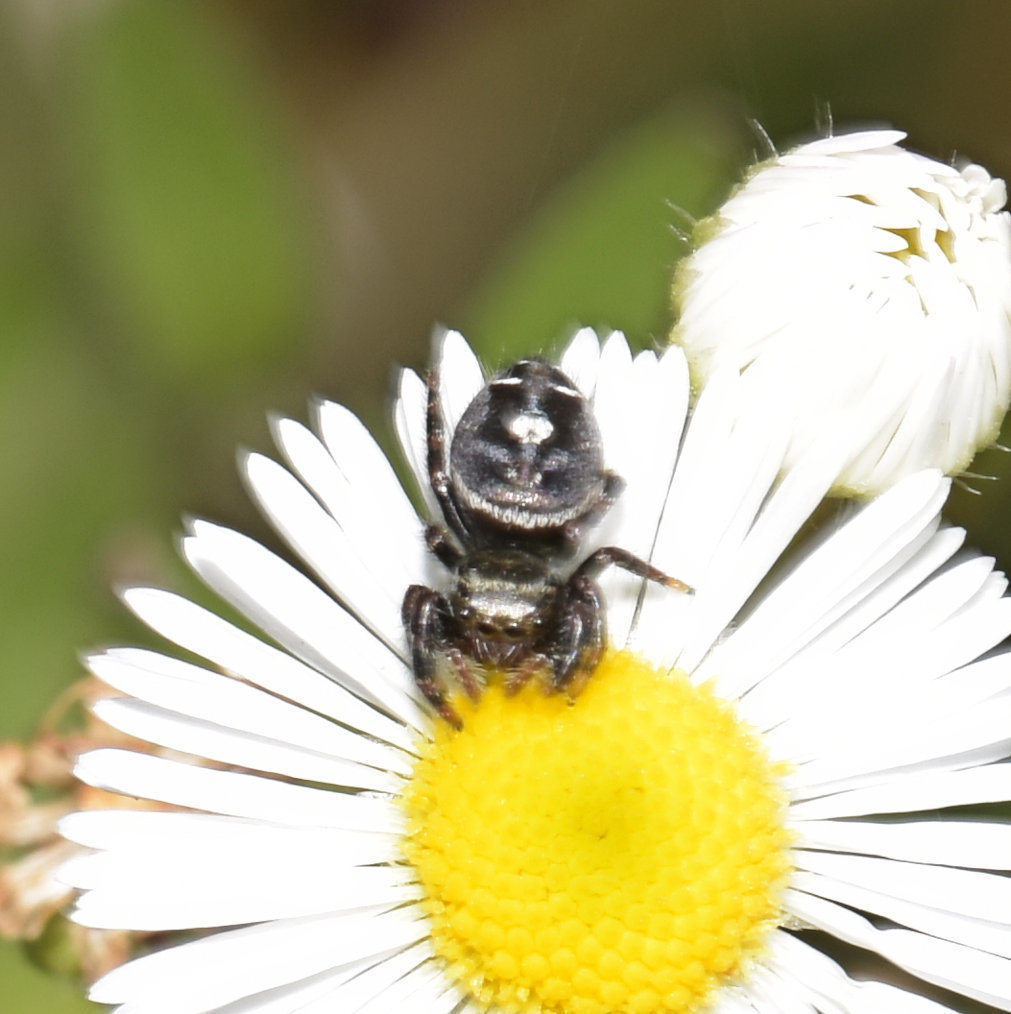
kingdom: Animalia
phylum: Arthropoda
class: Arachnida
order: Araneae
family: Salticidae
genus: Phidippus
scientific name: Phidippus audax
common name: Bold jumper
